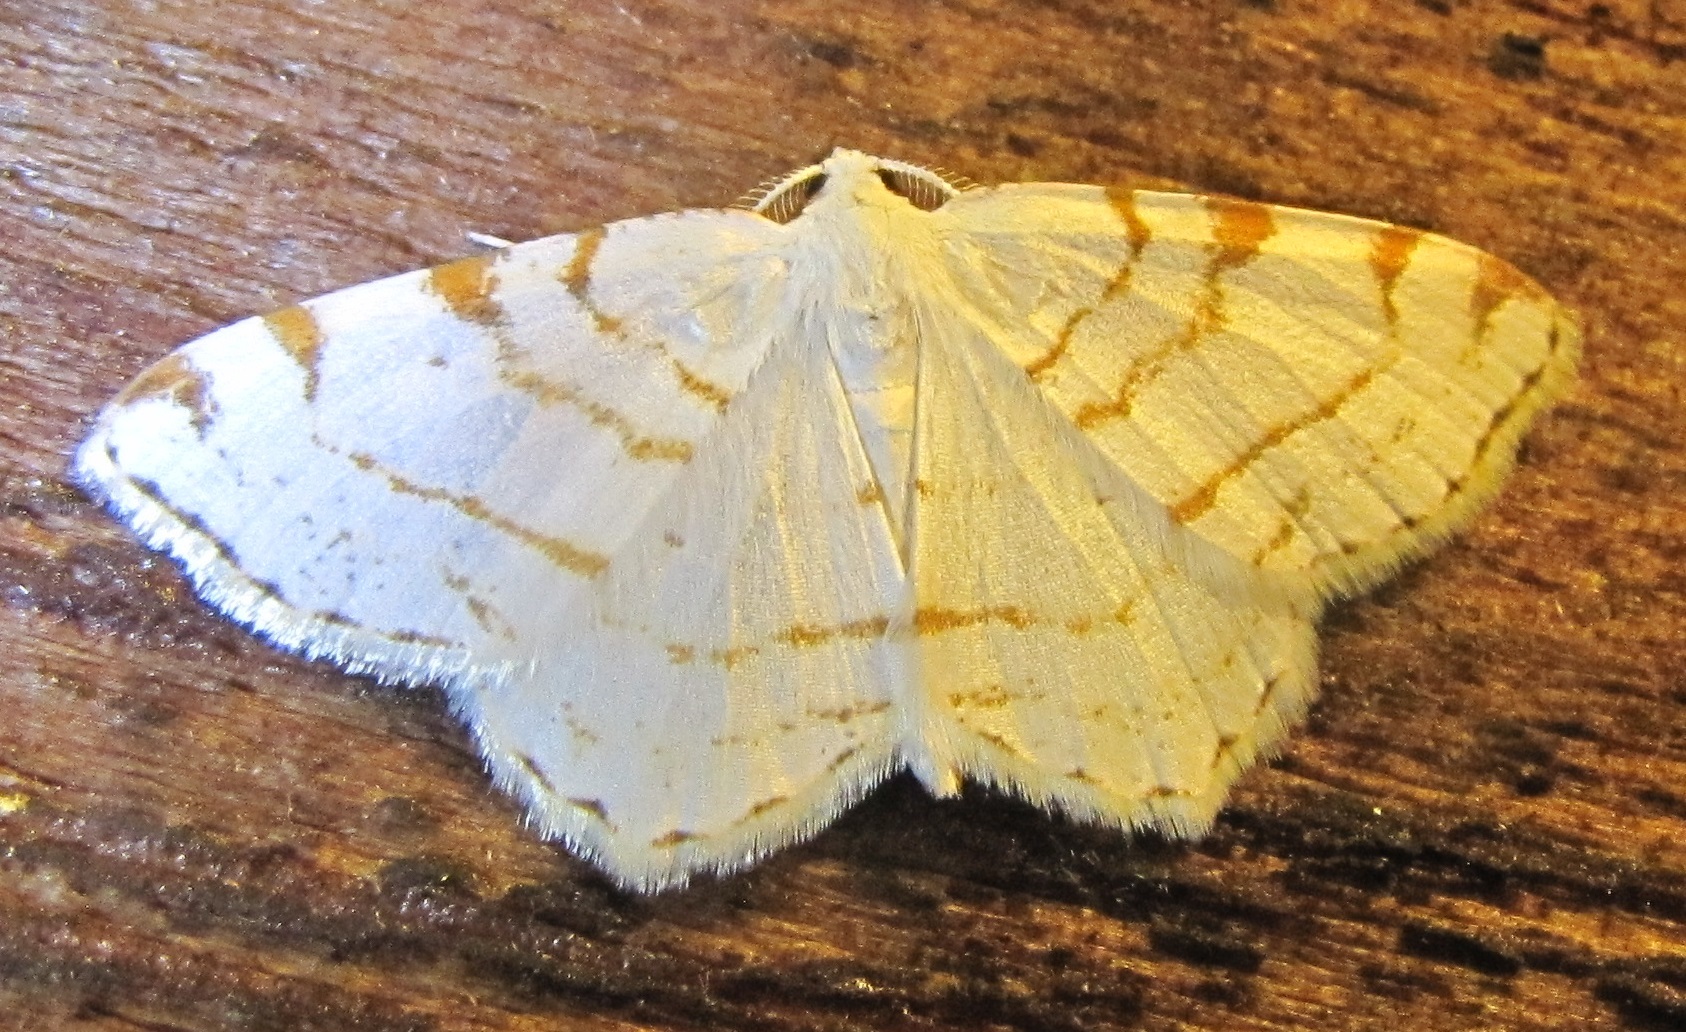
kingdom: Animalia
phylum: Arthropoda
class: Insecta
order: Lepidoptera
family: Geometridae
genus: Macaria
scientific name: Macaria pustularia
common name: Lesser maple spanworm moth
